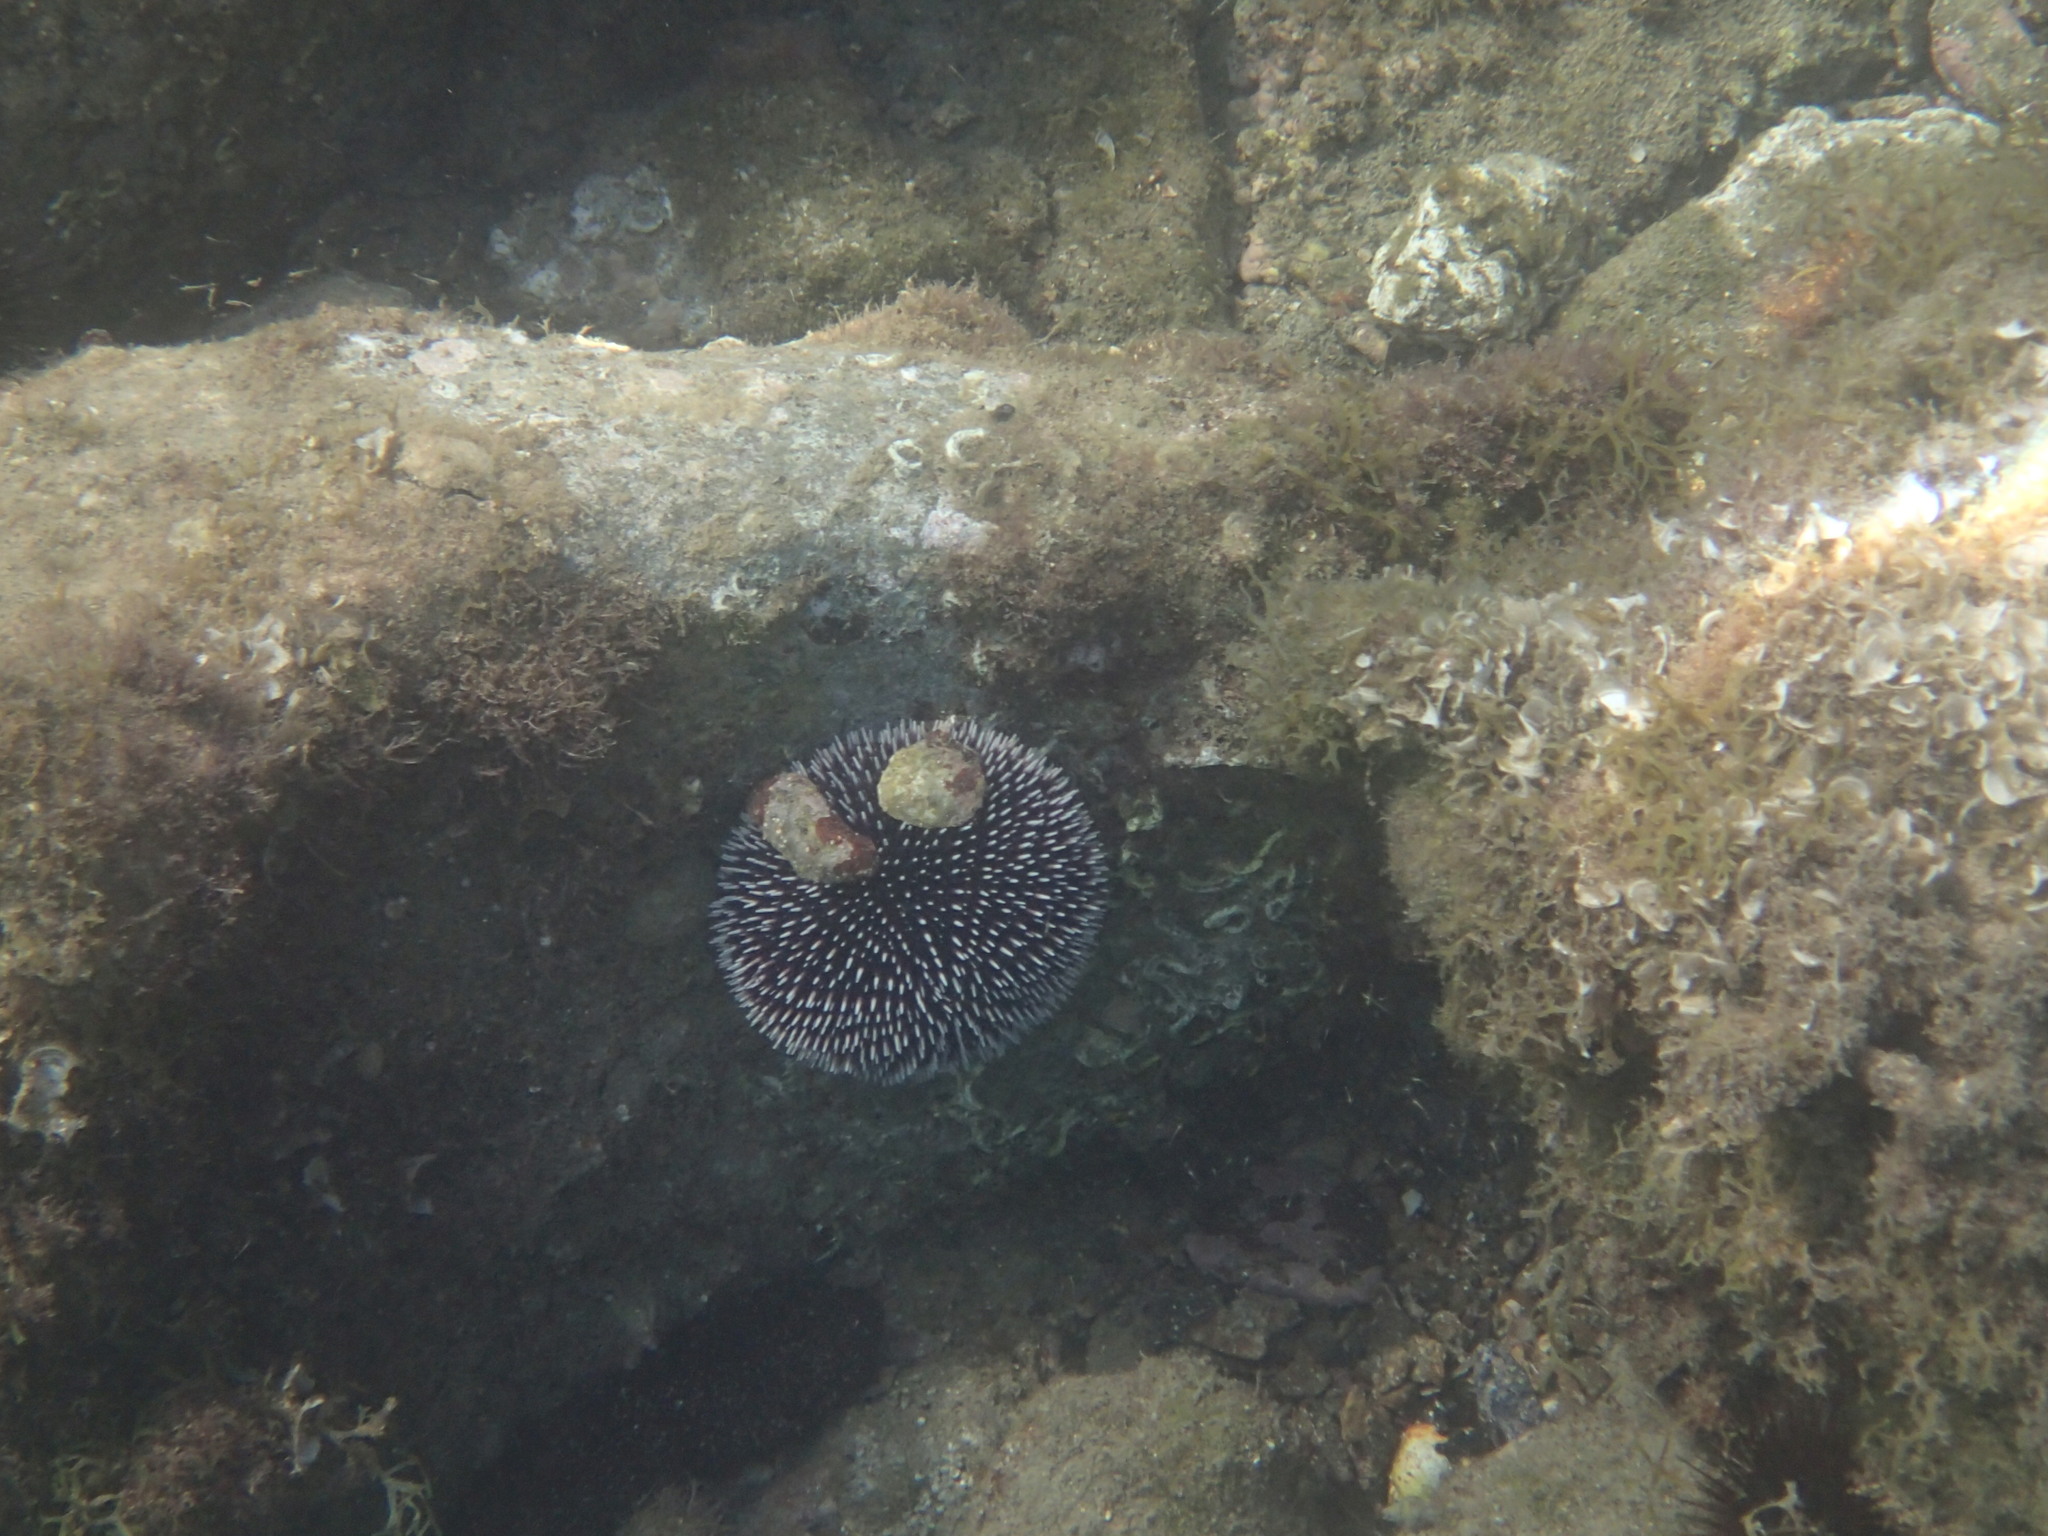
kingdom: Animalia
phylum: Echinodermata
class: Echinoidea
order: Camarodonta
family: Toxopneustidae
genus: Sphaerechinus
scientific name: Sphaerechinus granularis
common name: Violet sea urchin
